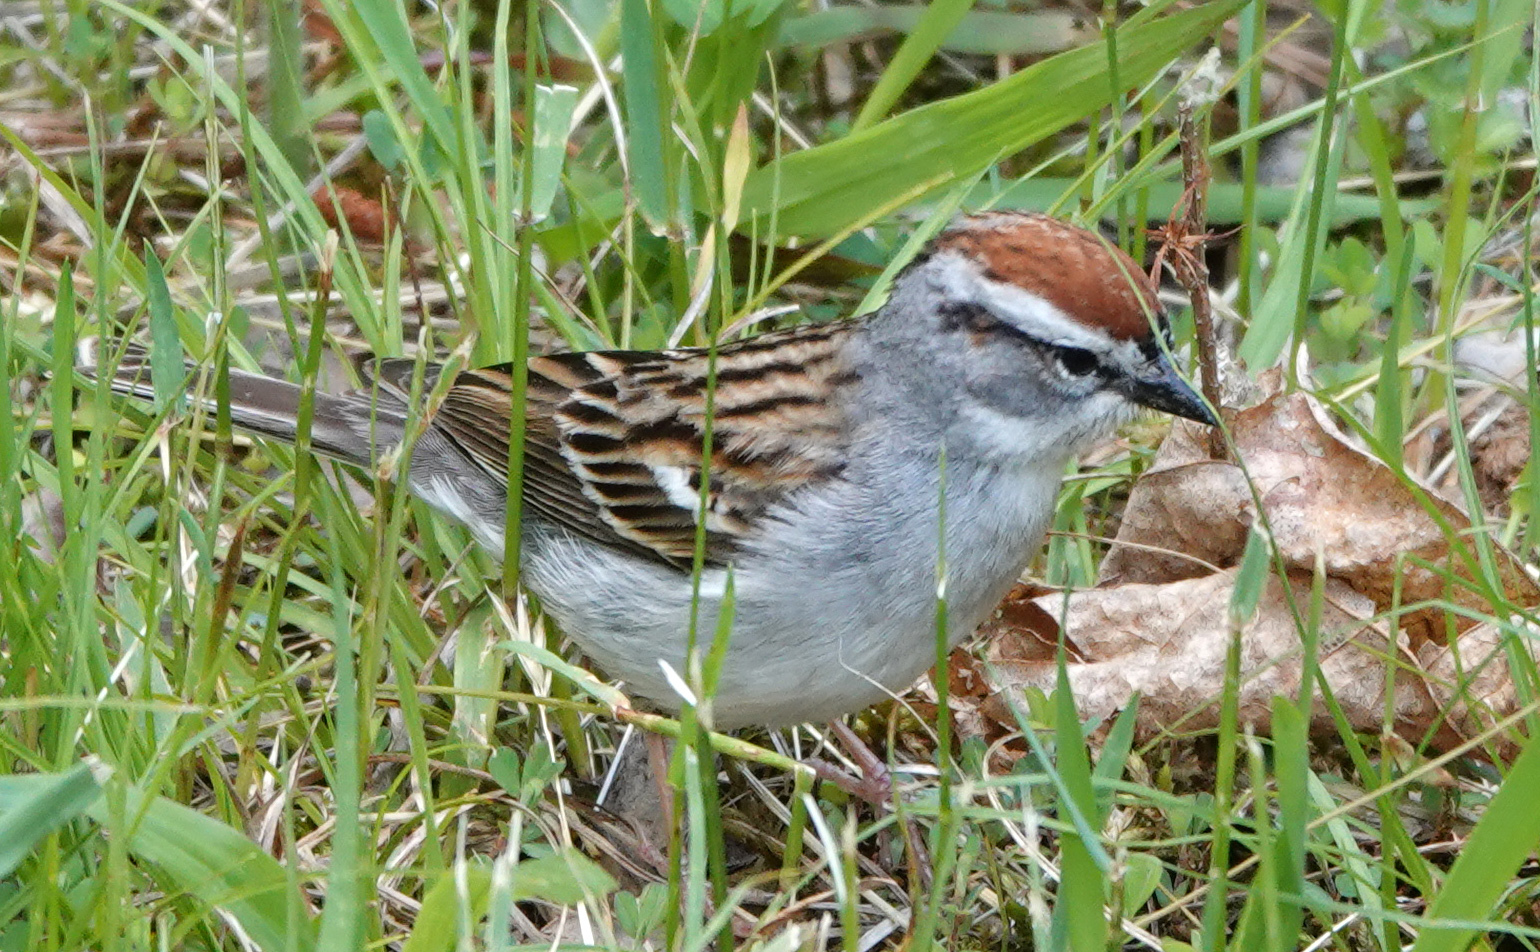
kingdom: Animalia
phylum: Chordata
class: Aves
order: Passeriformes
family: Passerellidae
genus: Spizella
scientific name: Spizella passerina
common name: Chipping sparrow
